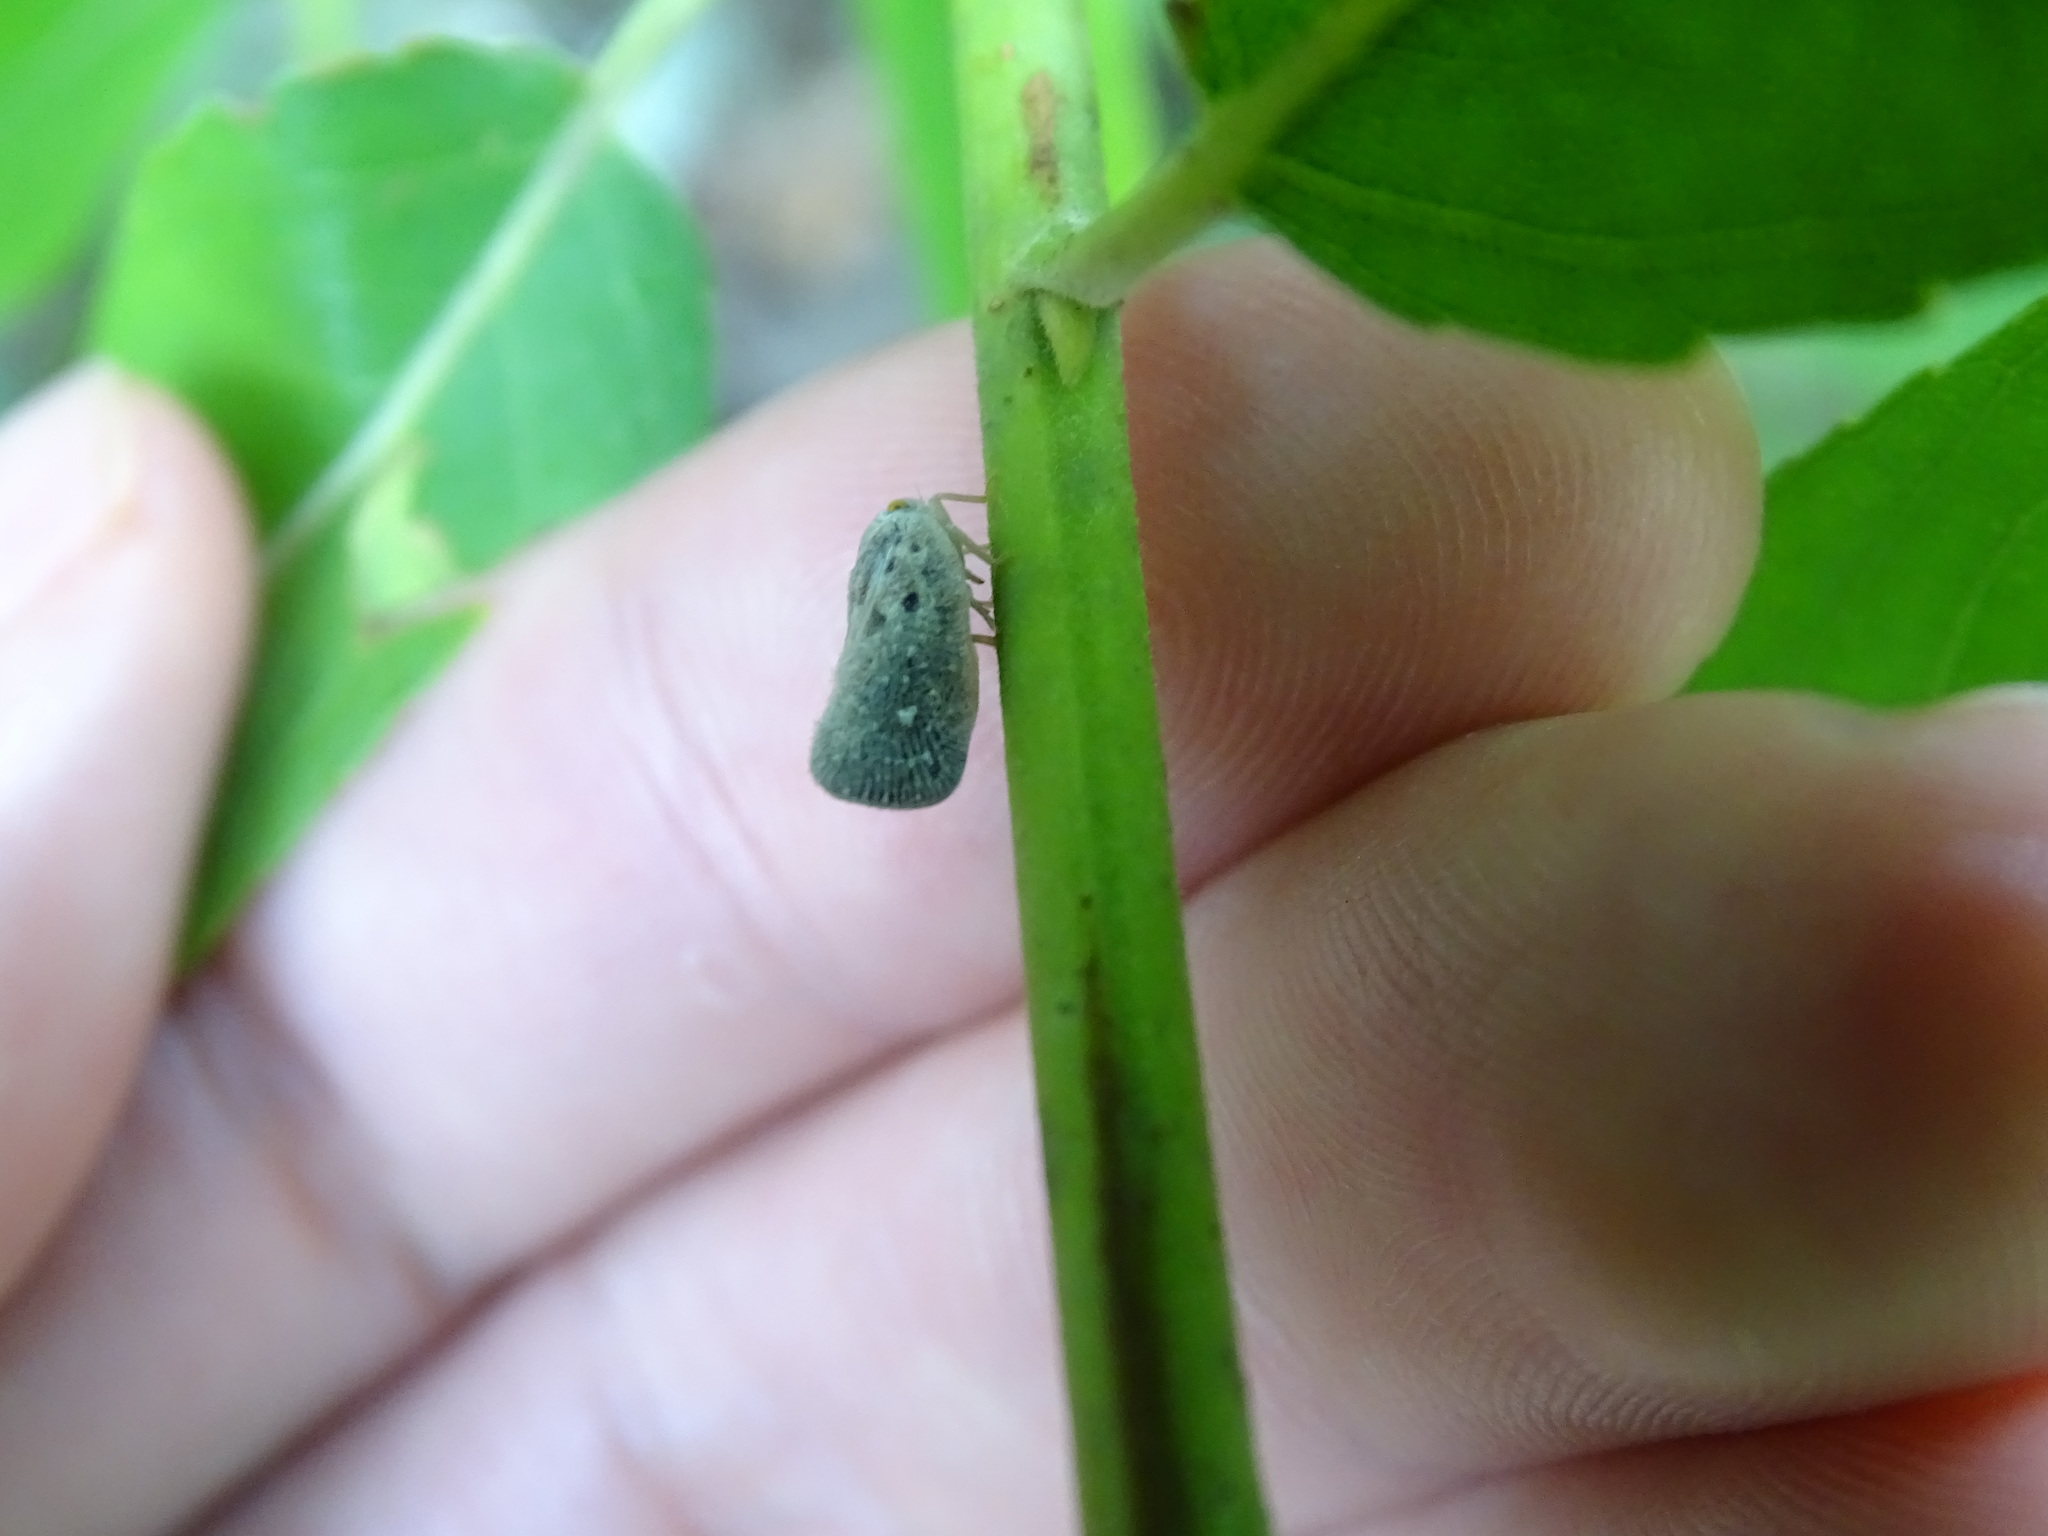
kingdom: Animalia
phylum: Arthropoda
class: Insecta
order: Hemiptera
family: Flatidae
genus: Metcalfa
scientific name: Metcalfa pruinosa
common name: Citrus flatid planthopper
